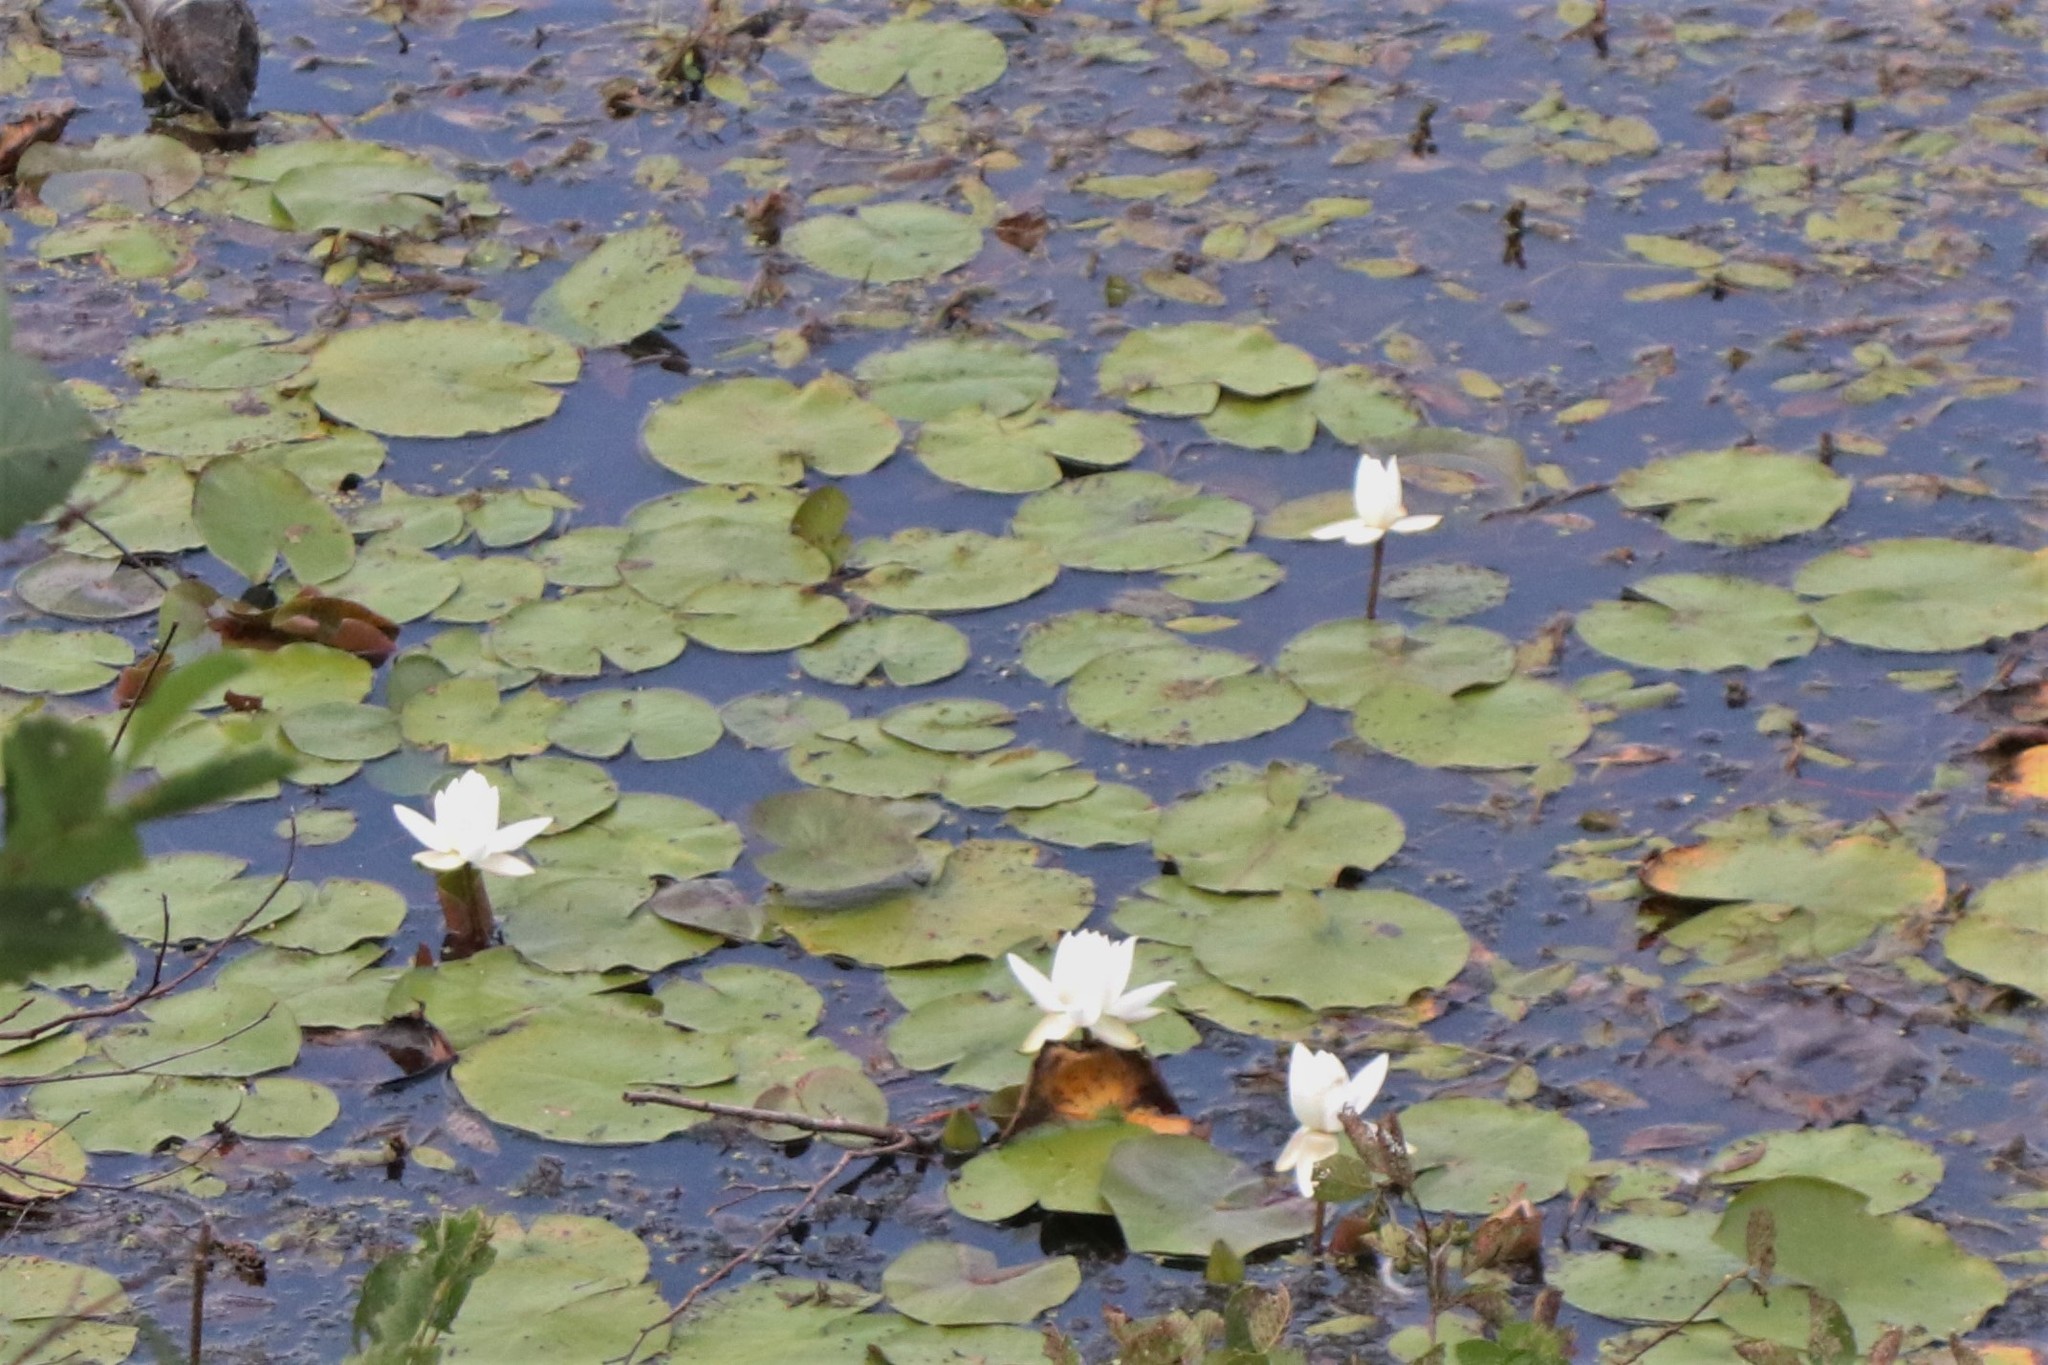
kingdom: Plantae
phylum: Tracheophyta
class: Magnoliopsida
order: Nymphaeales
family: Nymphaeaceae
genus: Nymphaea
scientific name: Nymphaea odorata
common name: Fragrant water-lily
